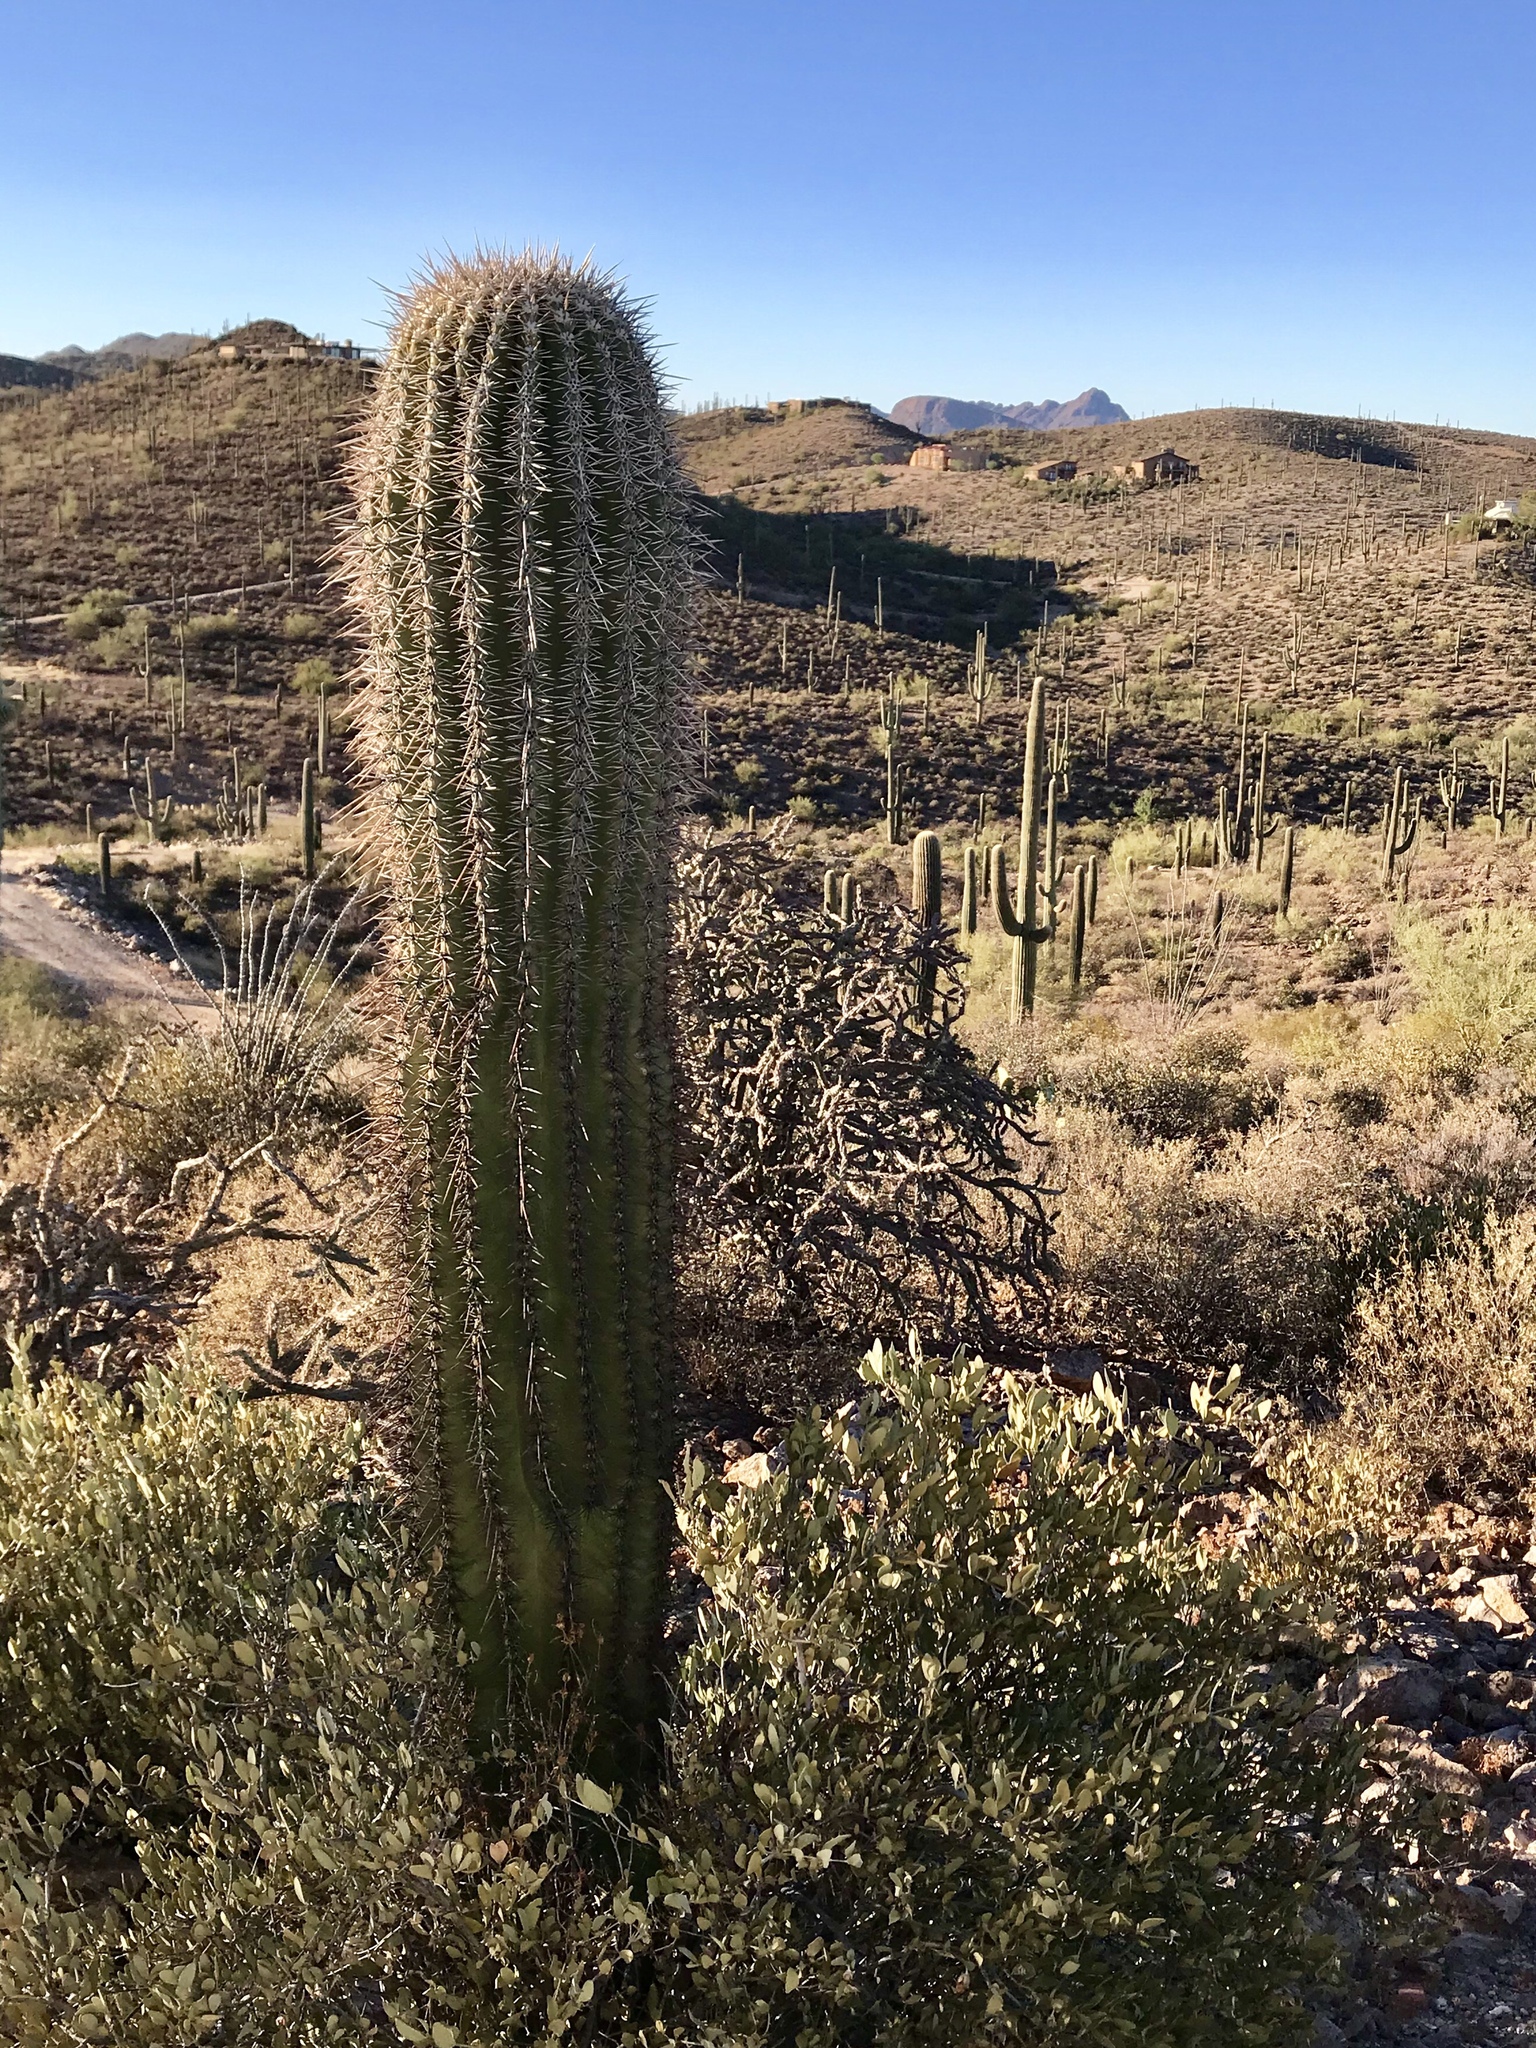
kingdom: Plantae
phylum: Tracheophyta
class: Magnoliopsida
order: Caryophyllales
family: Cactaceae
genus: Carnegiea
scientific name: Carnegiea gigantea
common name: Saguaro
